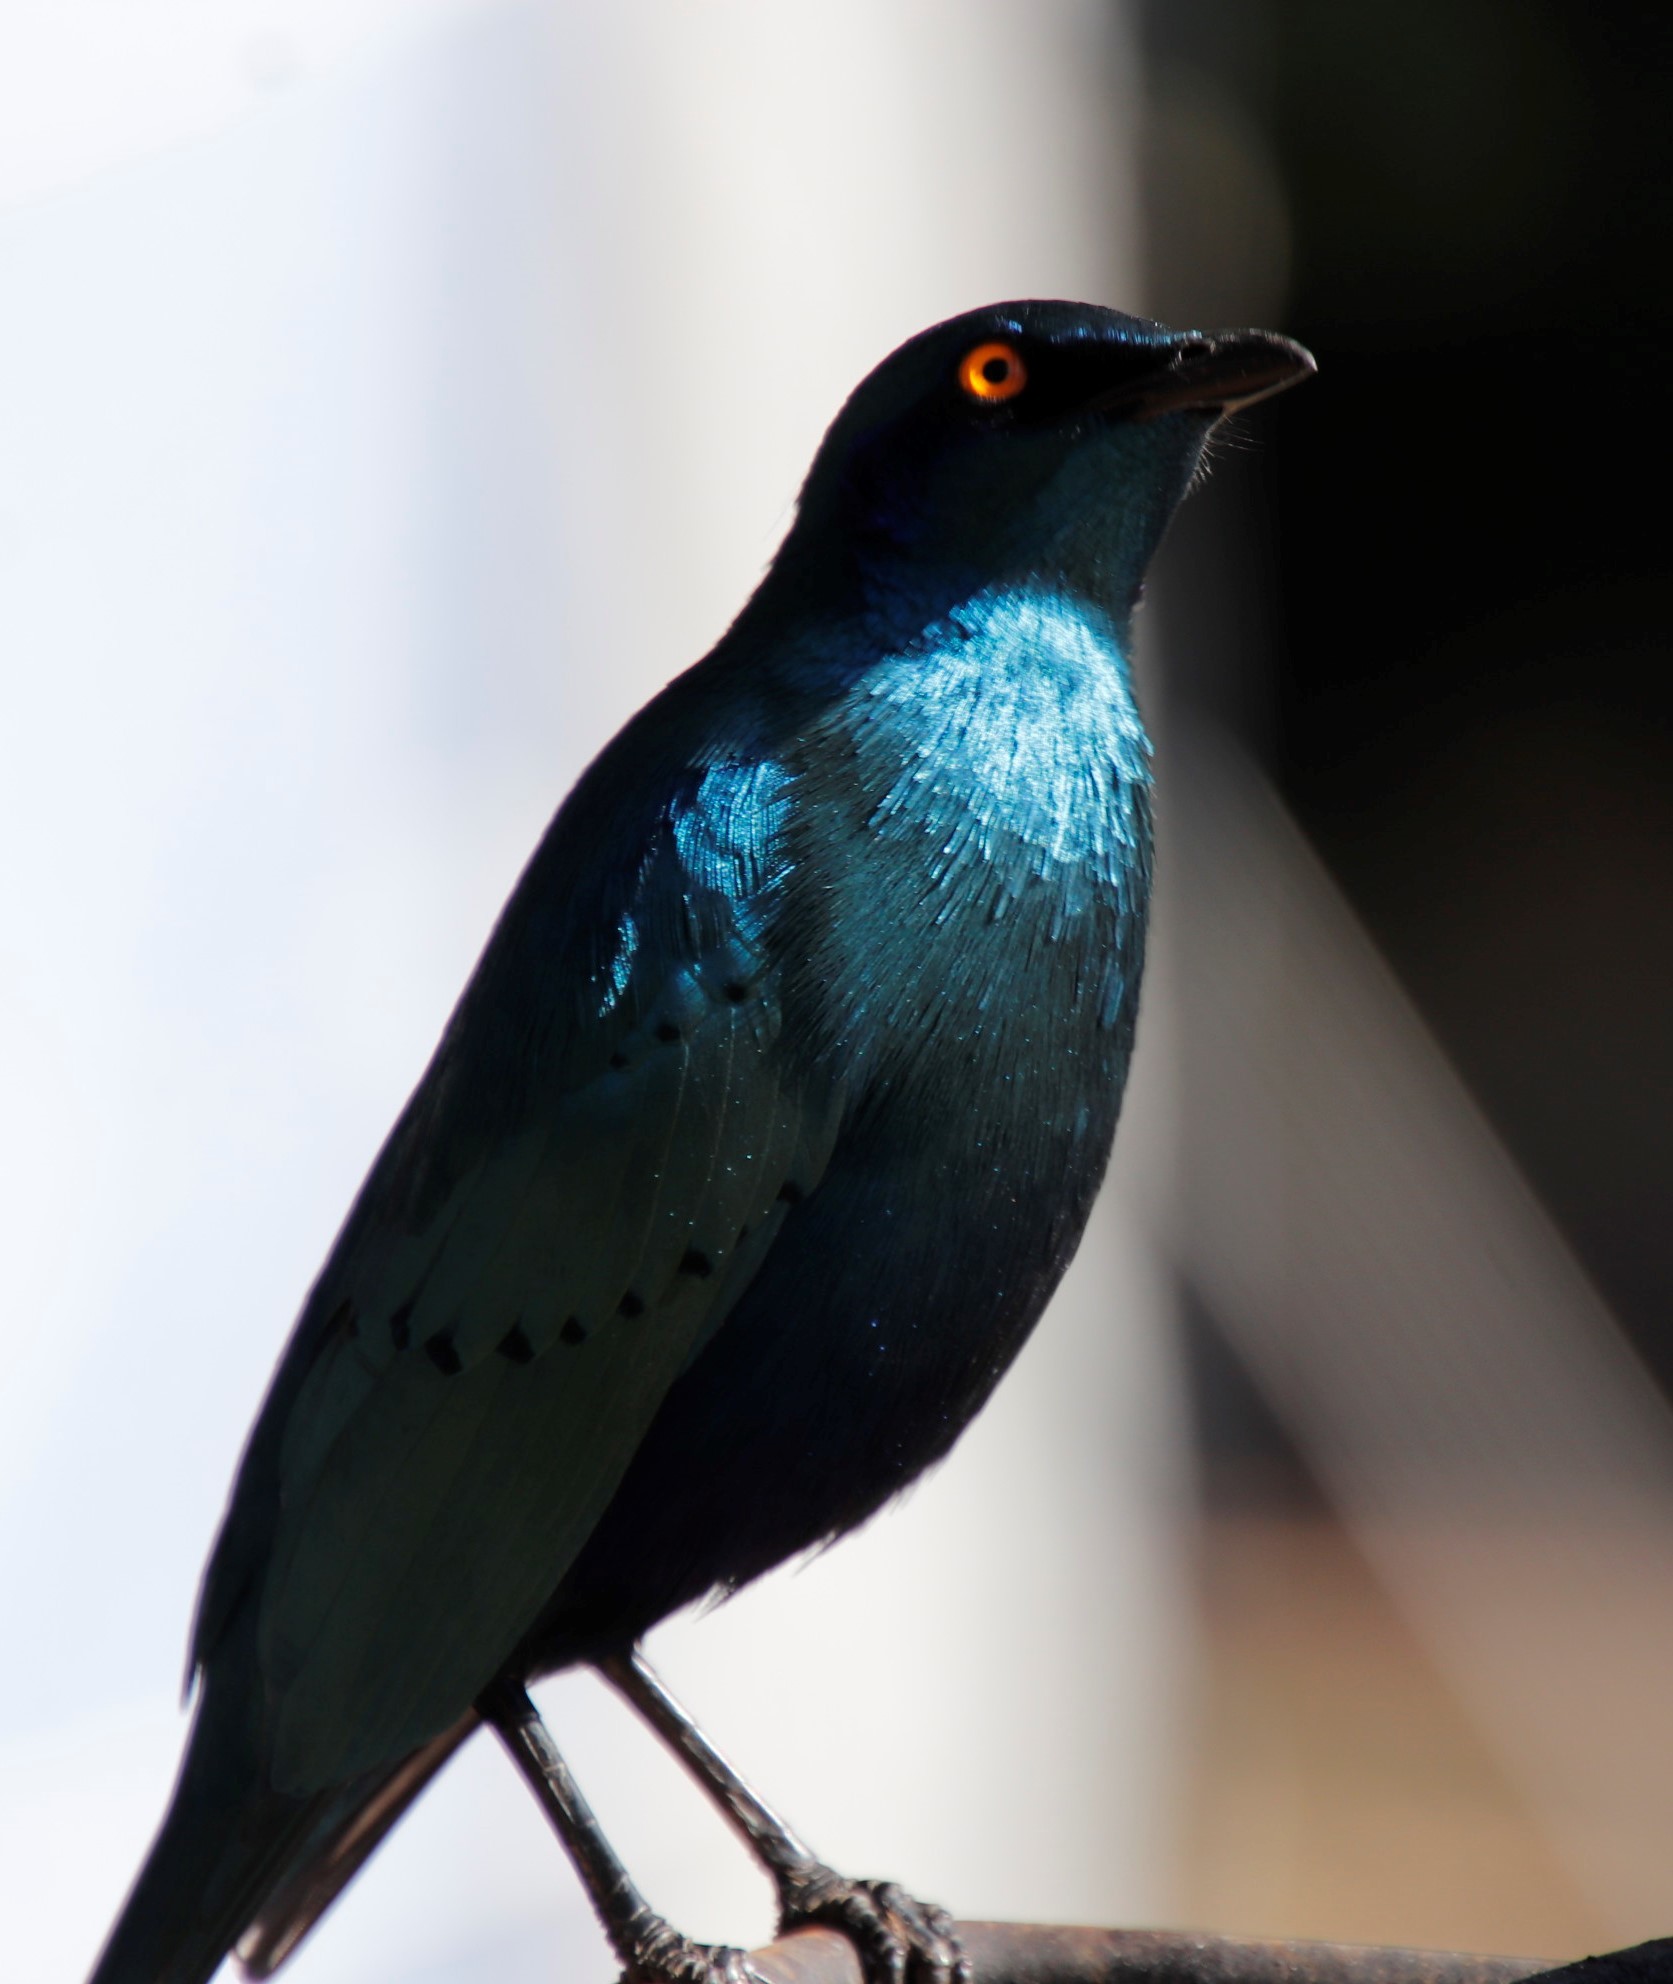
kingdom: Animalia
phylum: Chordata
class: Aves
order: Passeriformes
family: Sturnidae
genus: Lamprotornis
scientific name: Lamprotornis nitens
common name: Cape starling
